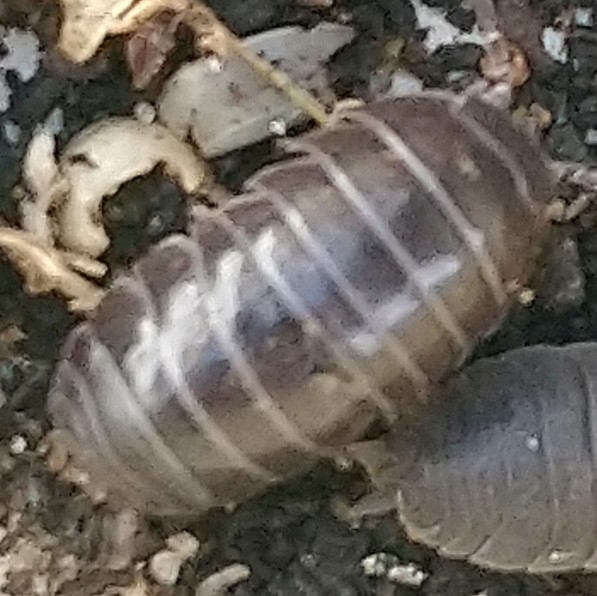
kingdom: Animalia
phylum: Arthropoda
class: Malacostraca
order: Isopoda
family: Armadillidiidae
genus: Armadillidium
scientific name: Armadillidium vulgare
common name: Common pill woodlouse
